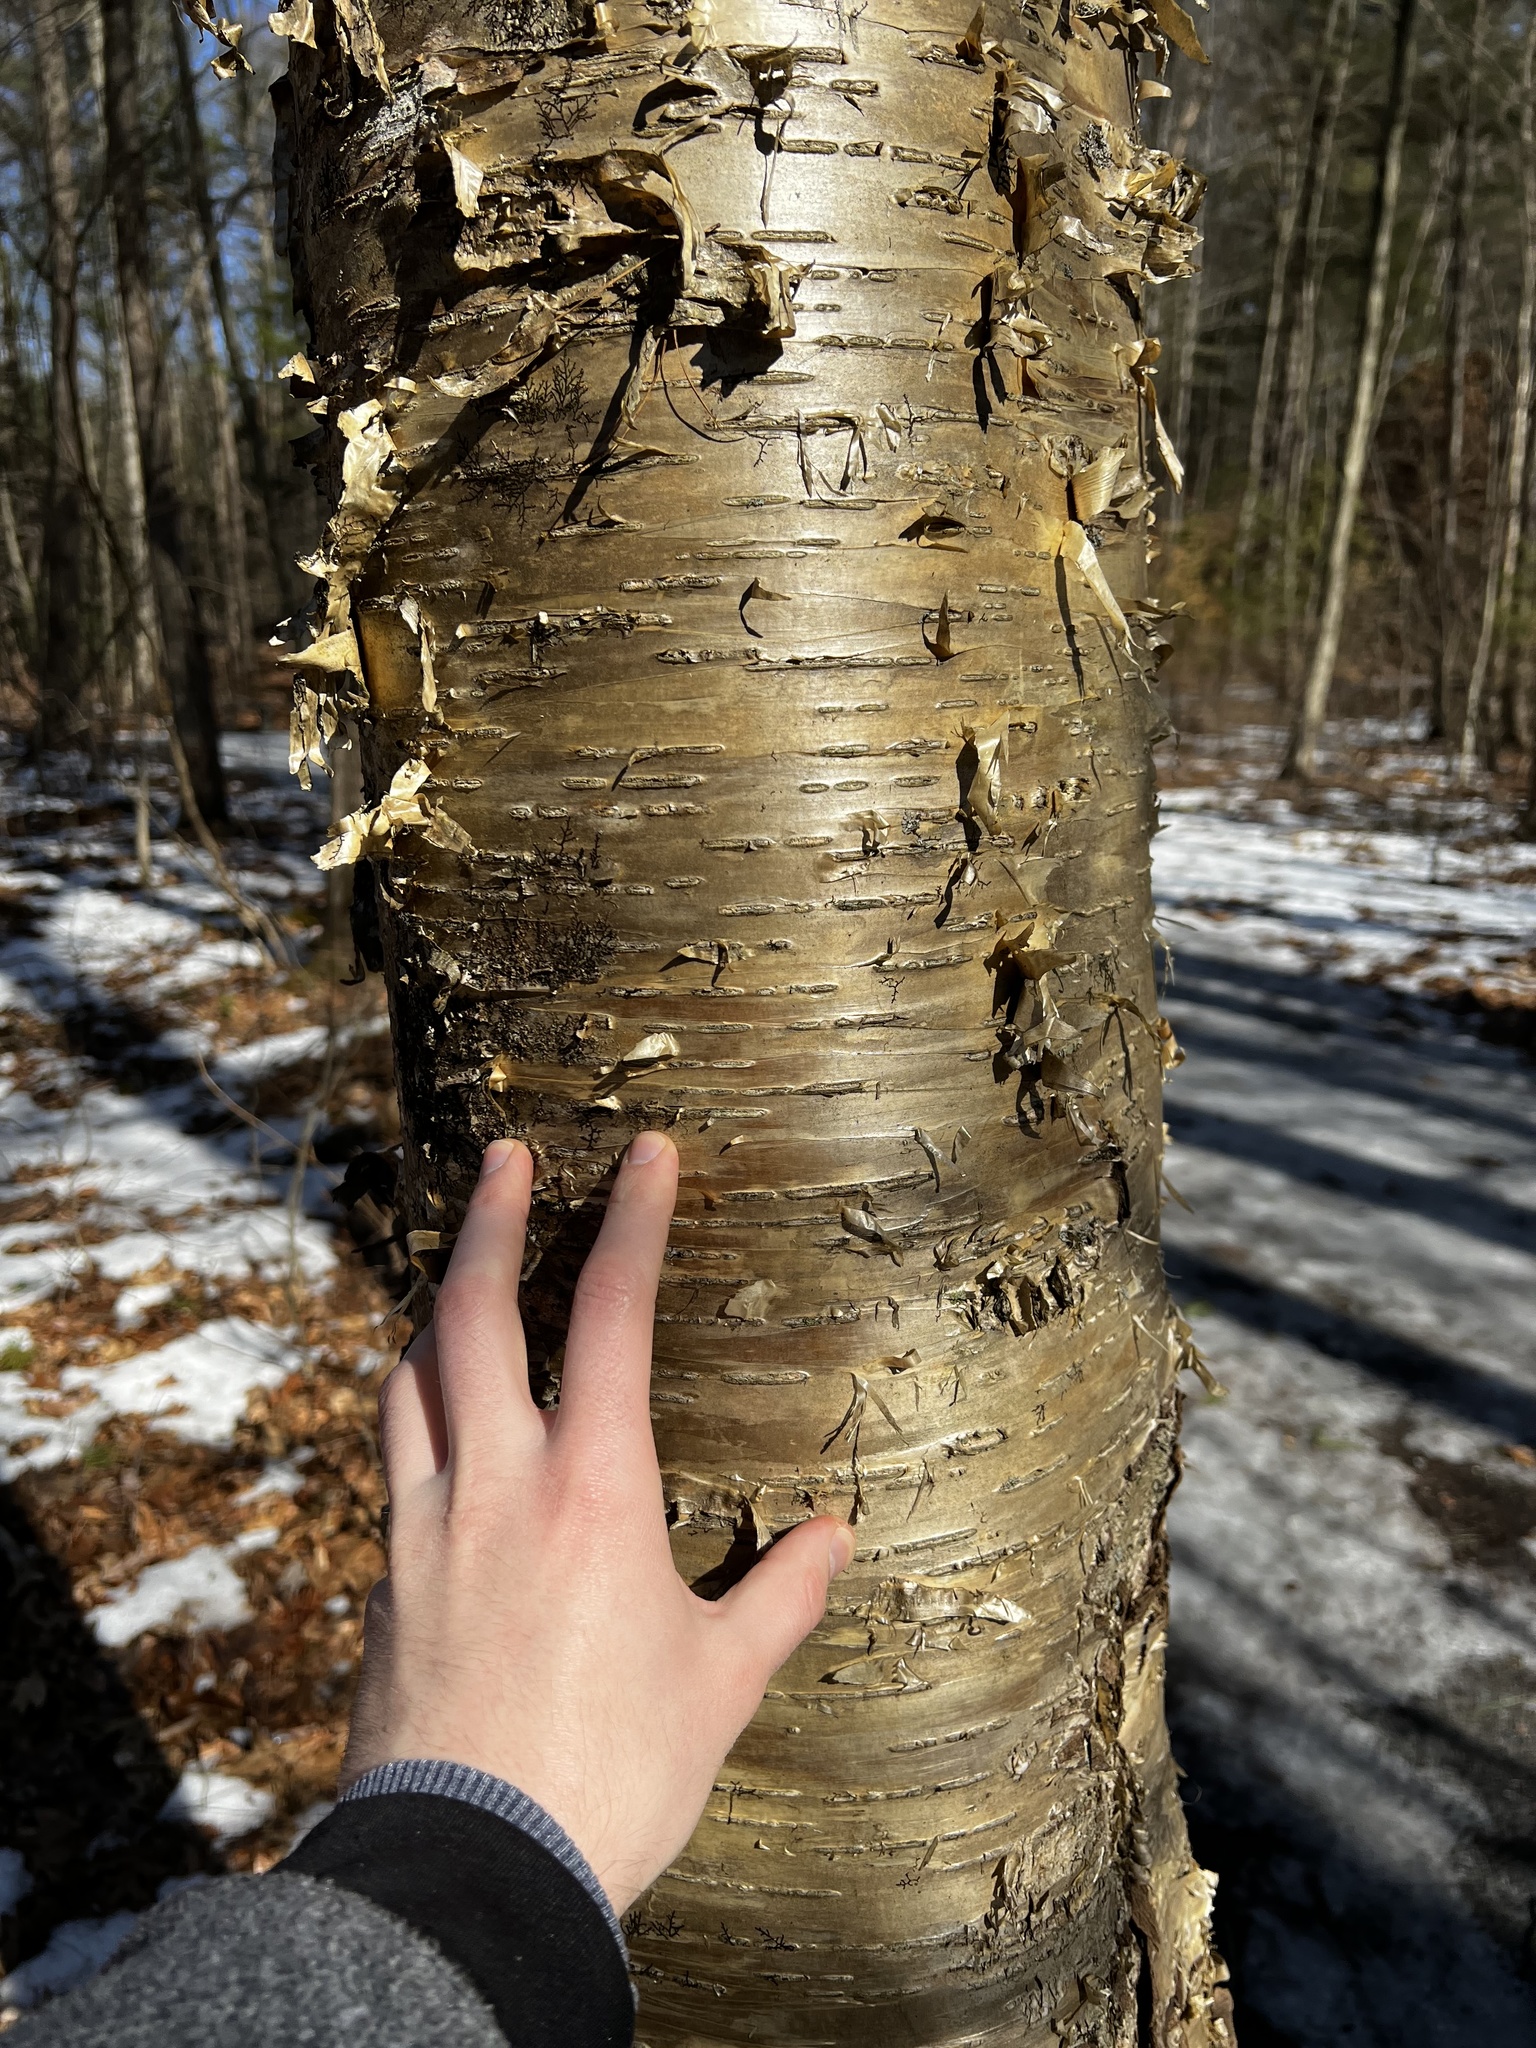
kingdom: Plantae
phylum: Tracheophyta
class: Magnoliopsida
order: Fagales
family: Betulaceae
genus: Betula
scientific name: Betula alleghaniensis
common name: Yellow birch
